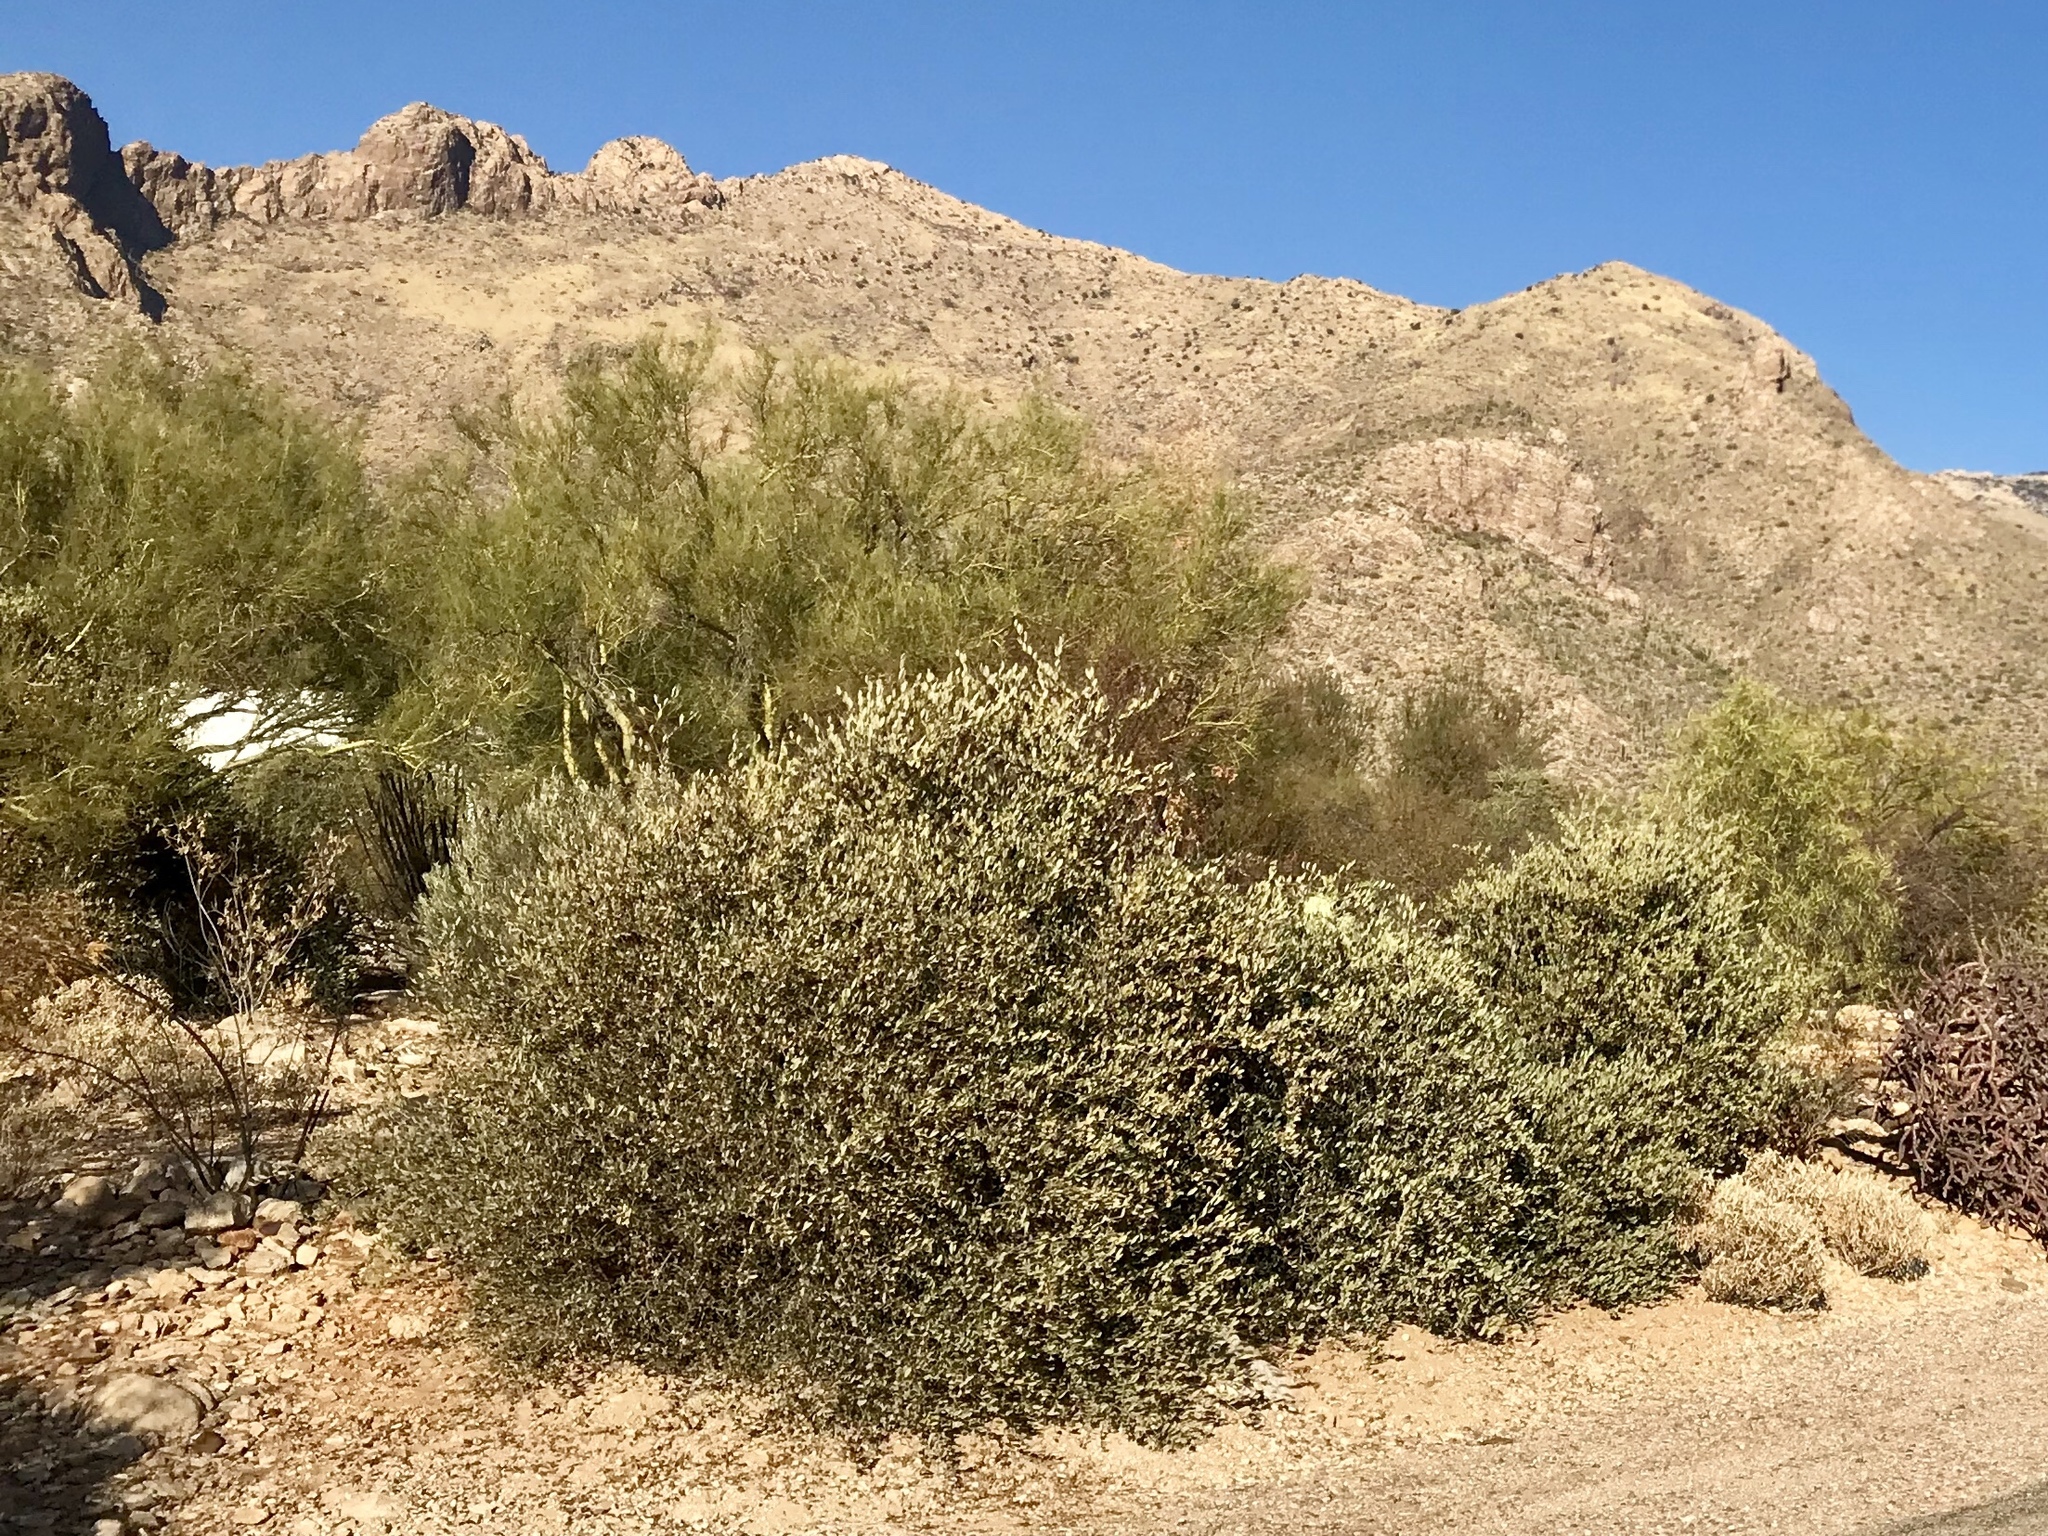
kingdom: Plantae
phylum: Tracheophyta
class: Magnoliopsida
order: Caryophyllales
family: Simmondsiaceae
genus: Simmondsia
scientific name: Simmondsia chinensis
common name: Jojoba
